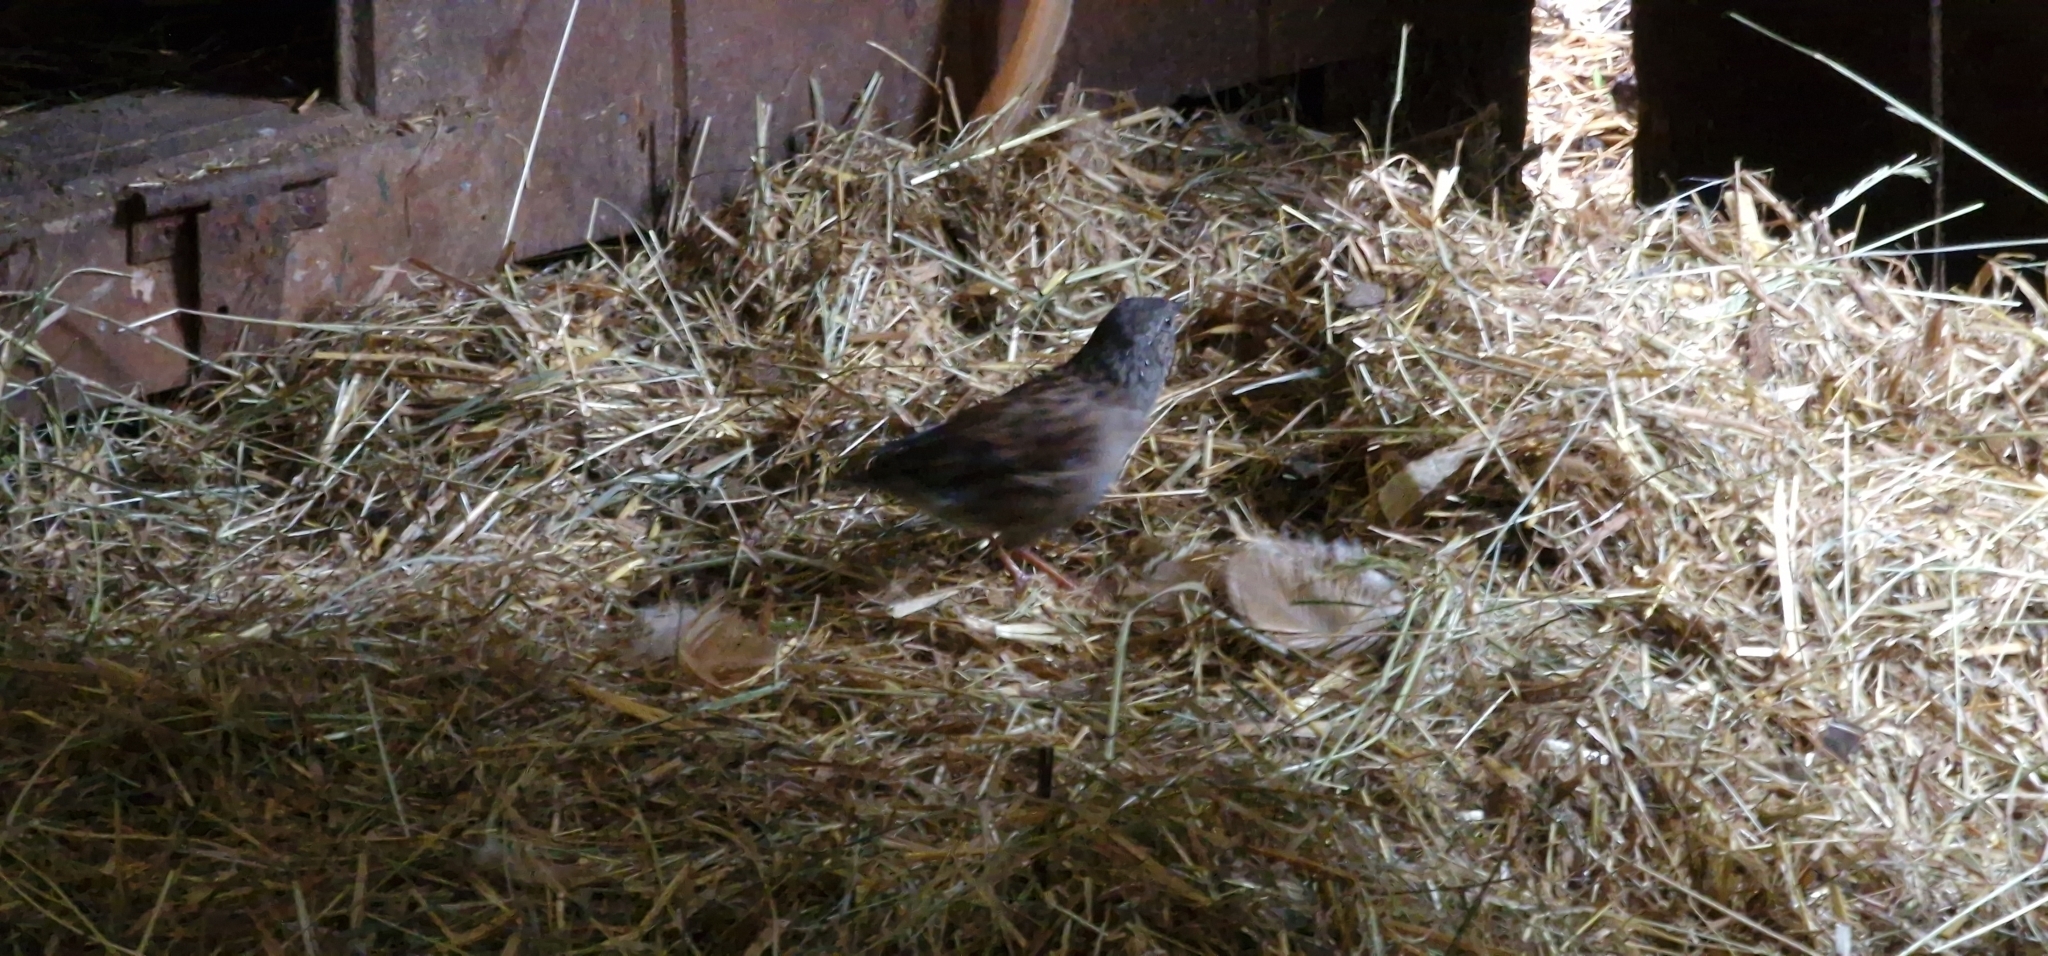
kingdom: Animalia
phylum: Chordata
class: Aves
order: Passeriformes
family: Prunellidae
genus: Prunella
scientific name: Prunella modularis
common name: Dunnock
